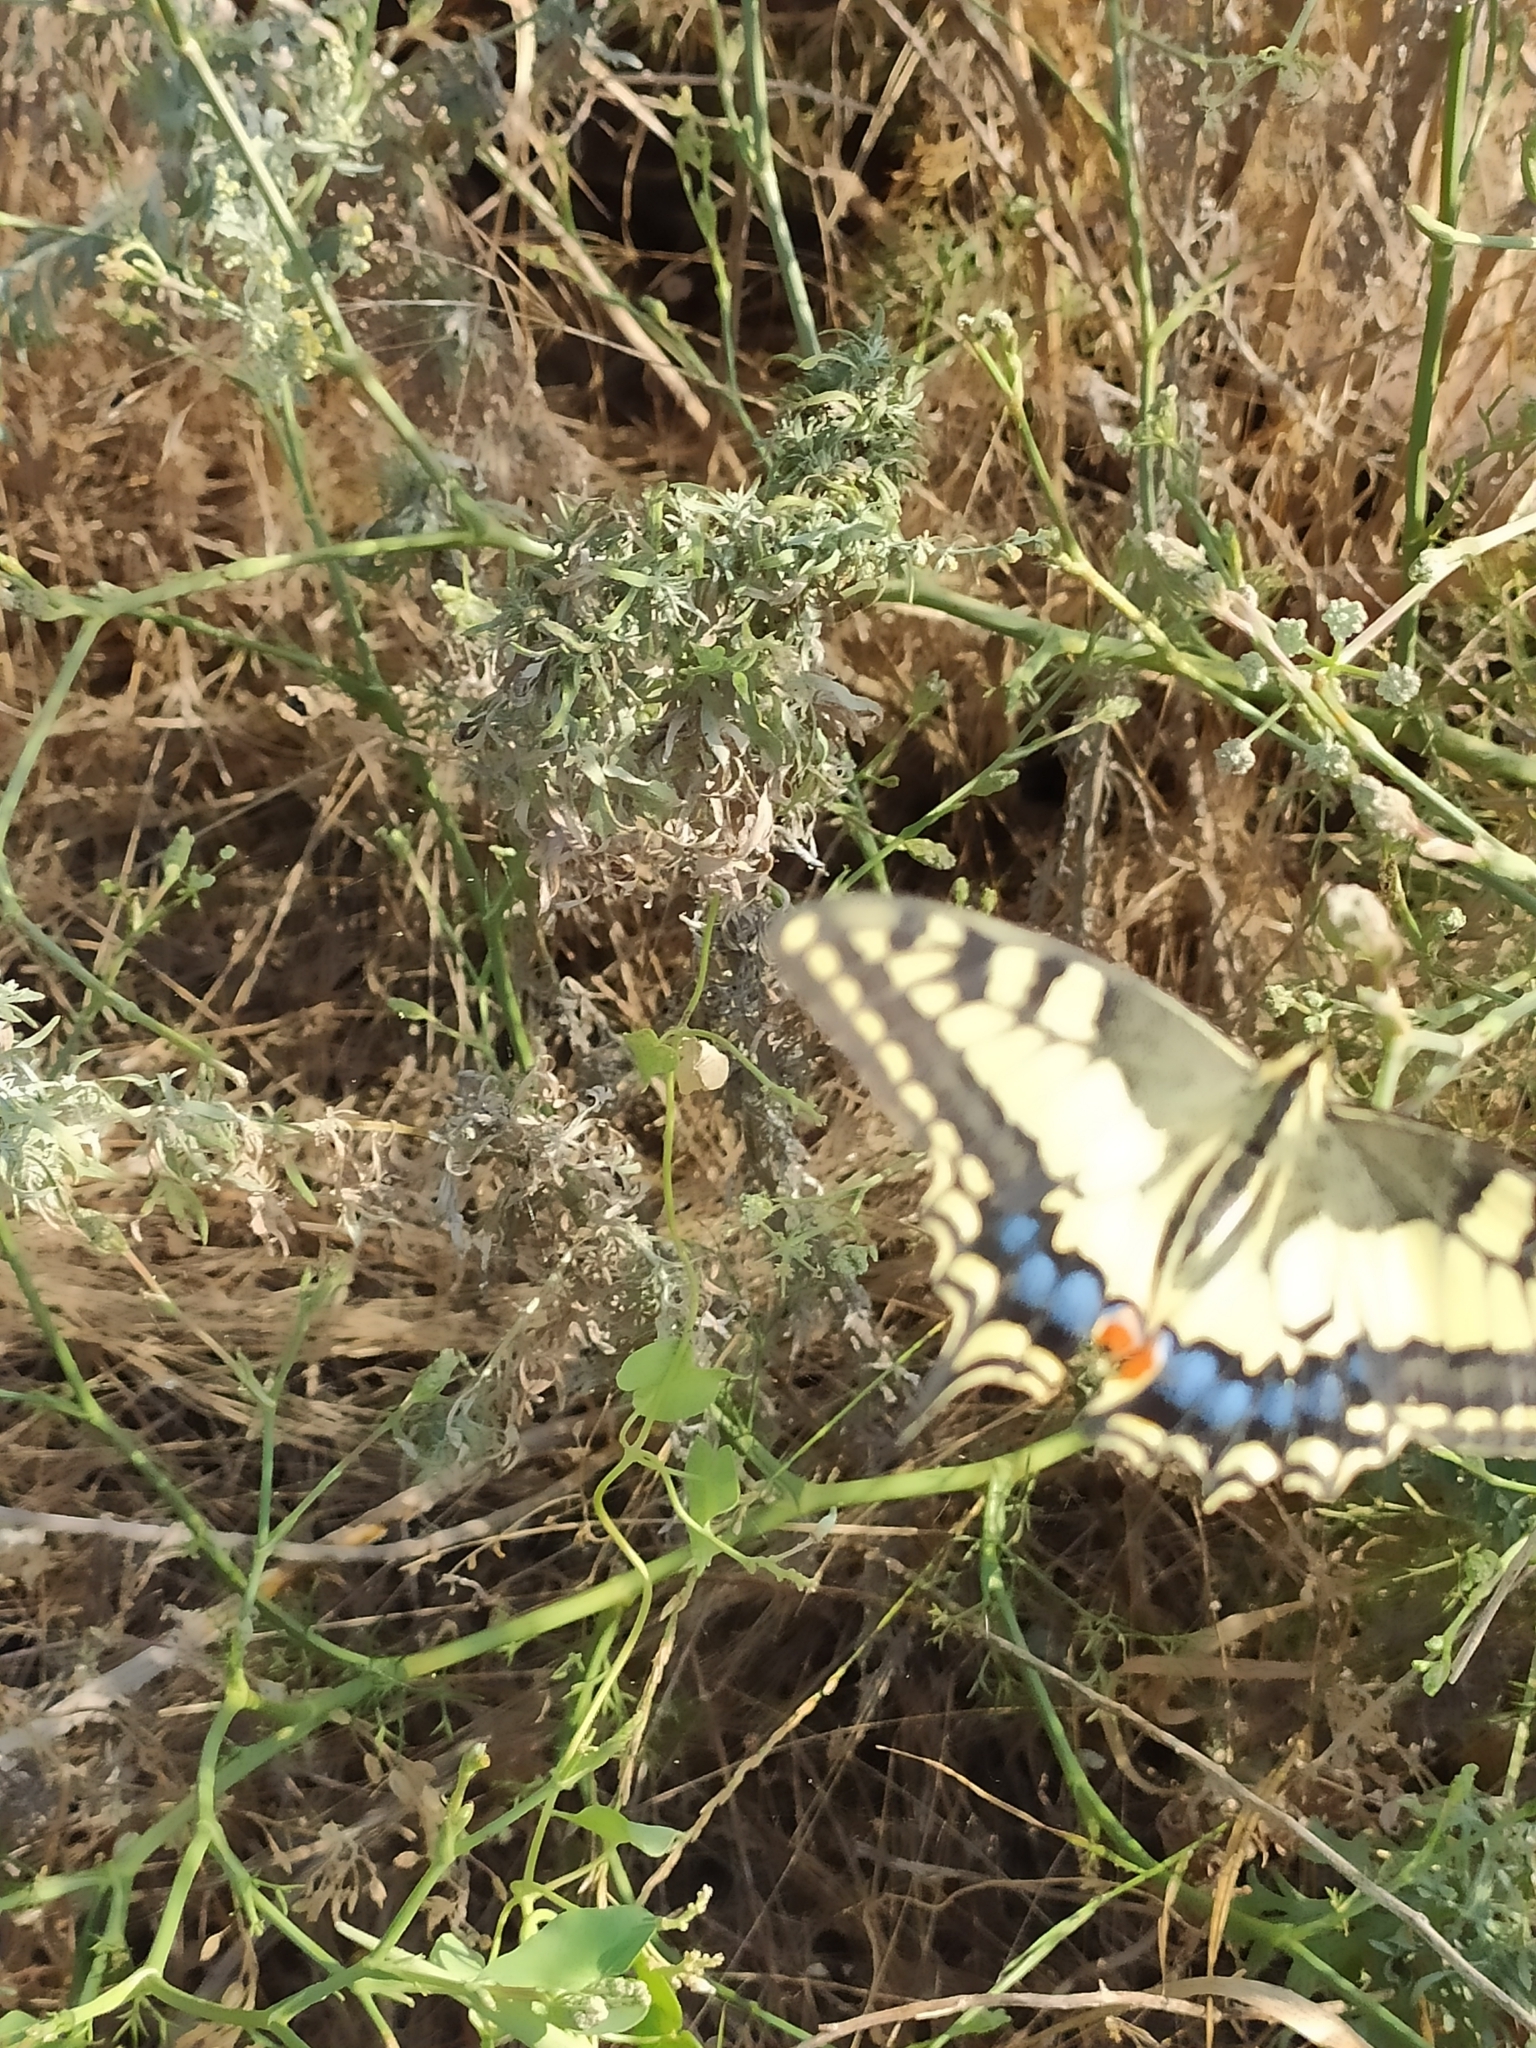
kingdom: Animalia
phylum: Arthropoda
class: Insecta
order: Lepidoptera
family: Papilionidae
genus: Papilio
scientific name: Papilio machaon
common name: Swallowtail
